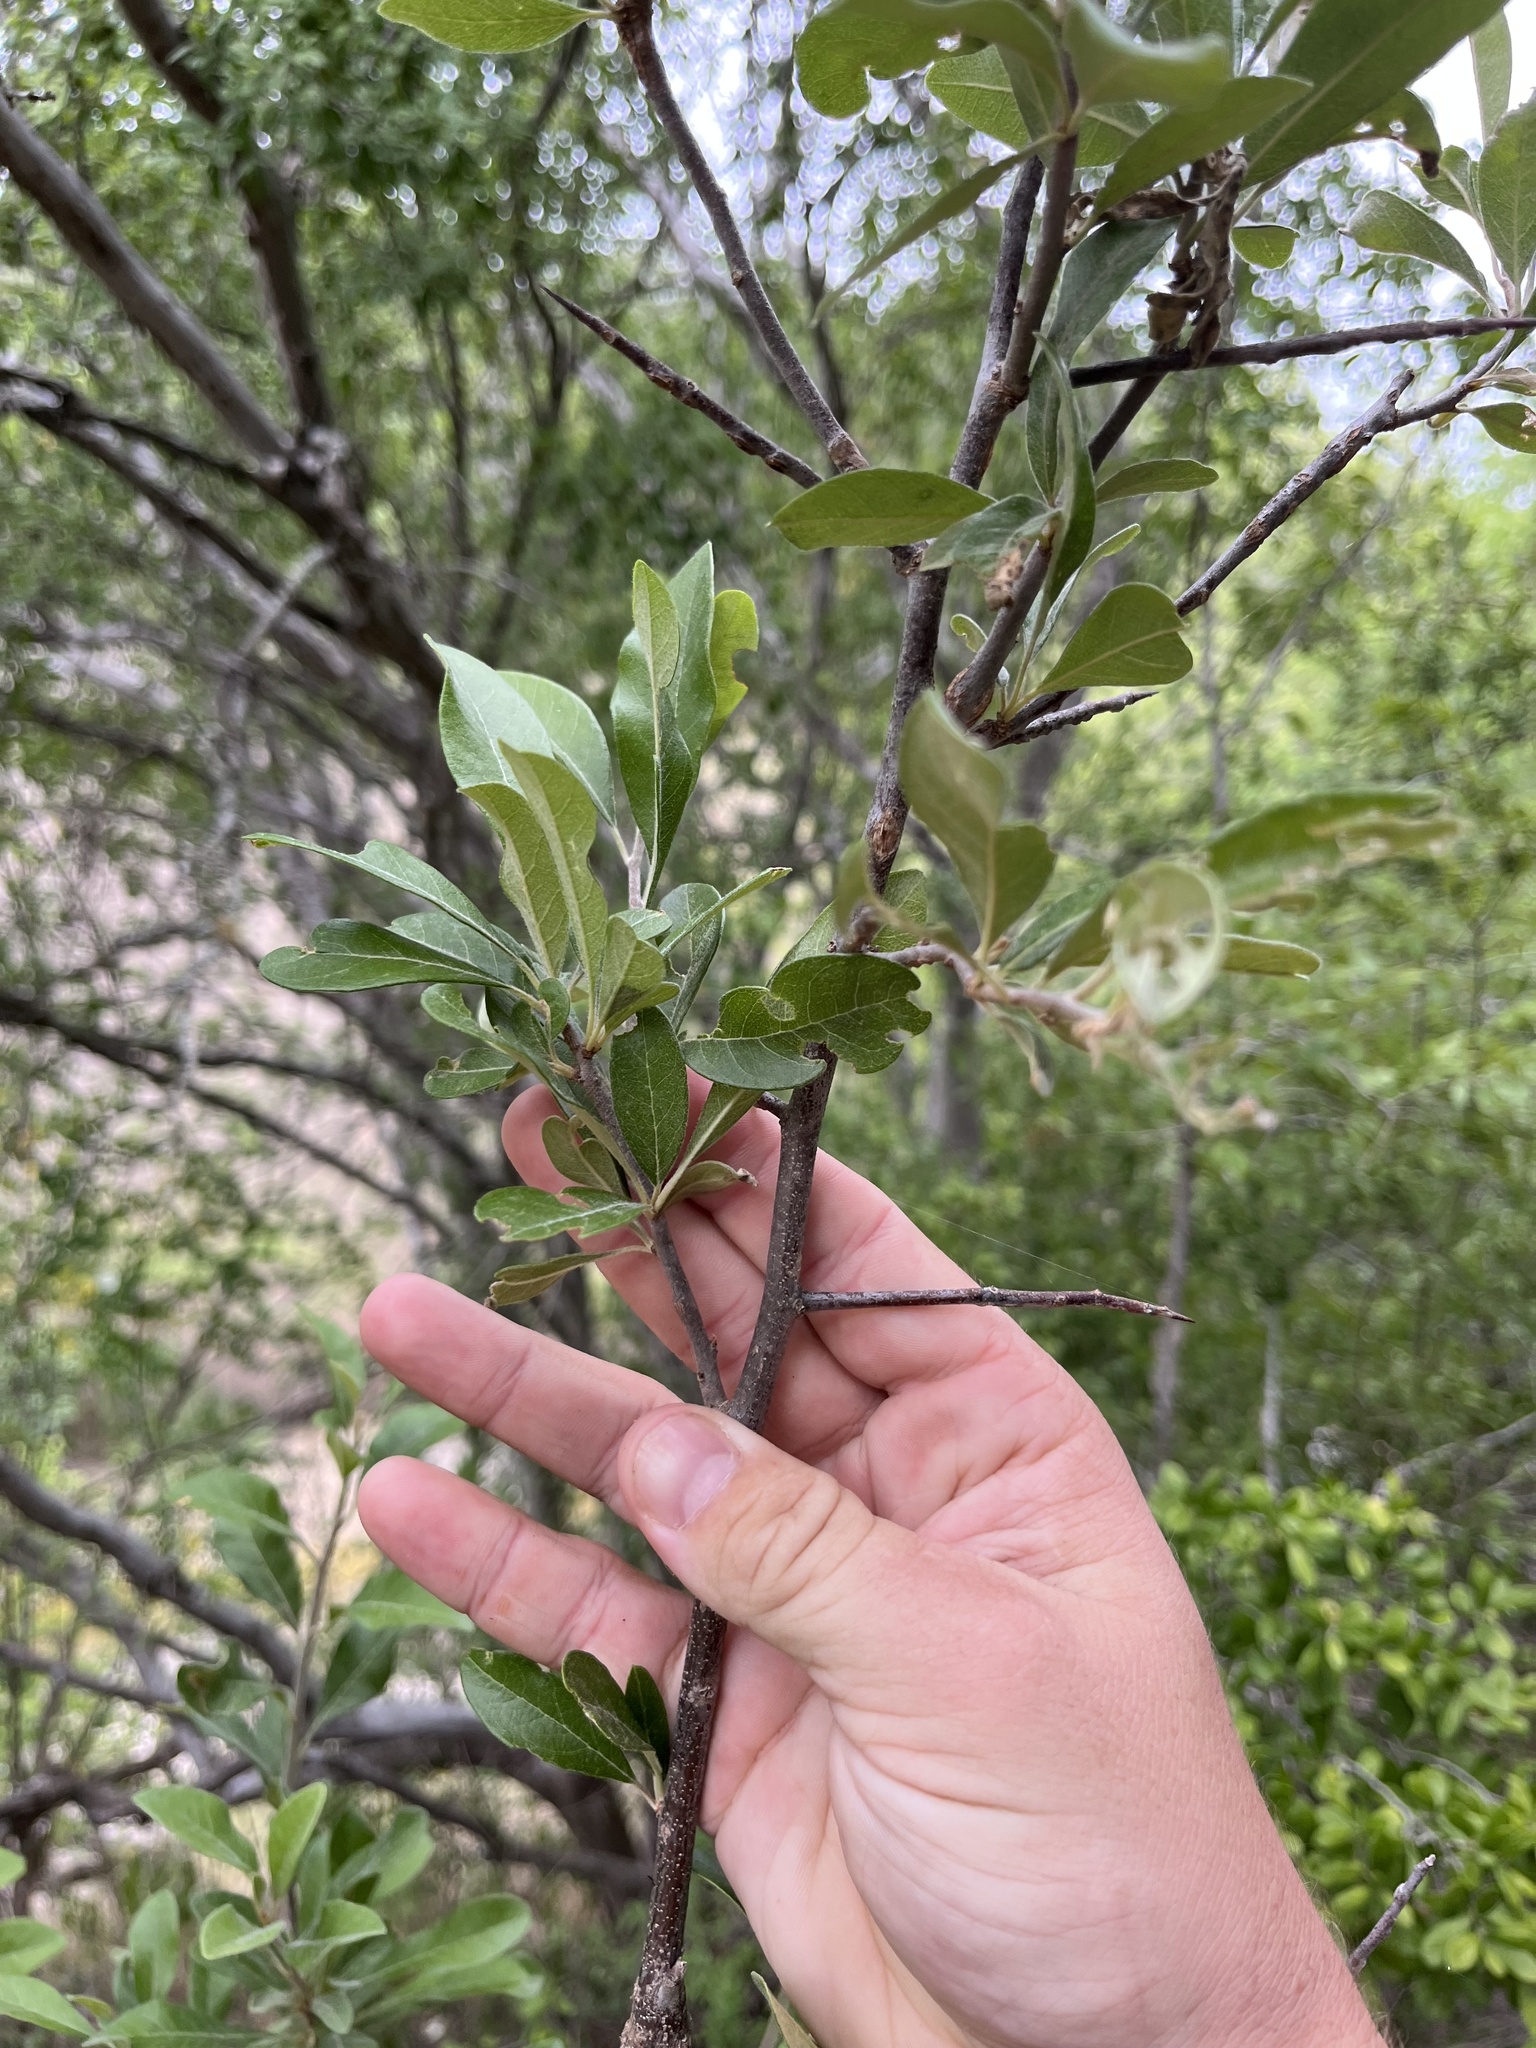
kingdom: Plantae
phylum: Tracheophyta
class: Magnoliopsida
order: Ericales
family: Sapotaceae
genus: Sideroxylon
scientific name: Sideroxylon lanuginosum
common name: Chittamwood
